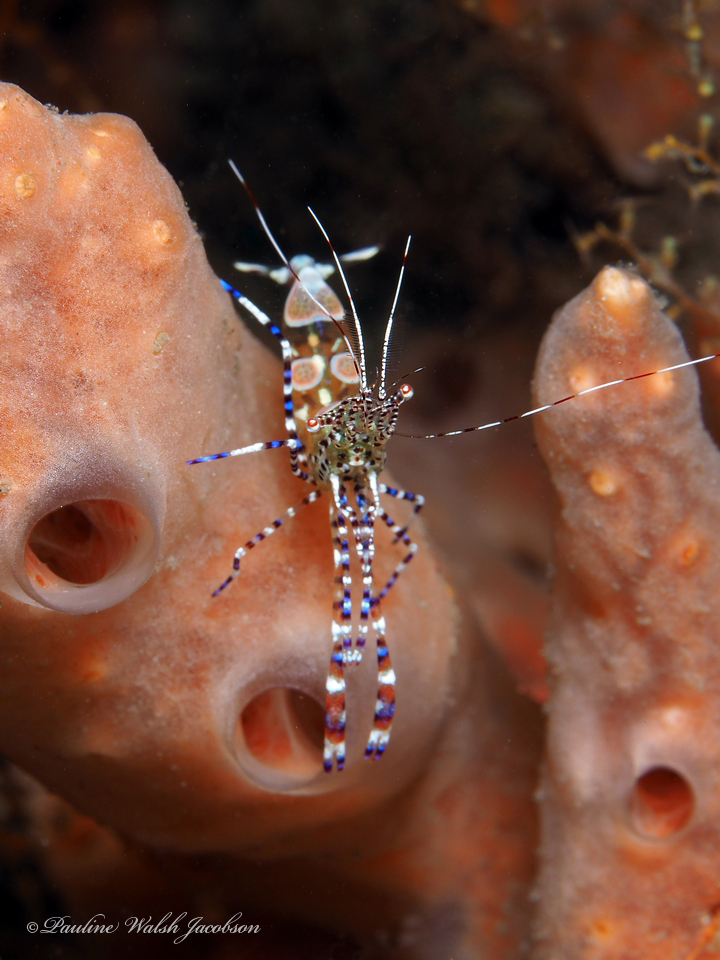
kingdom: Animalia
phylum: Arthropoda
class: Malacostraca
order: Decapoda
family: Palaemonidae
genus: Periclimenes
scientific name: Periclimenes yucatanicus
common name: Spotted cleaning shrimp
